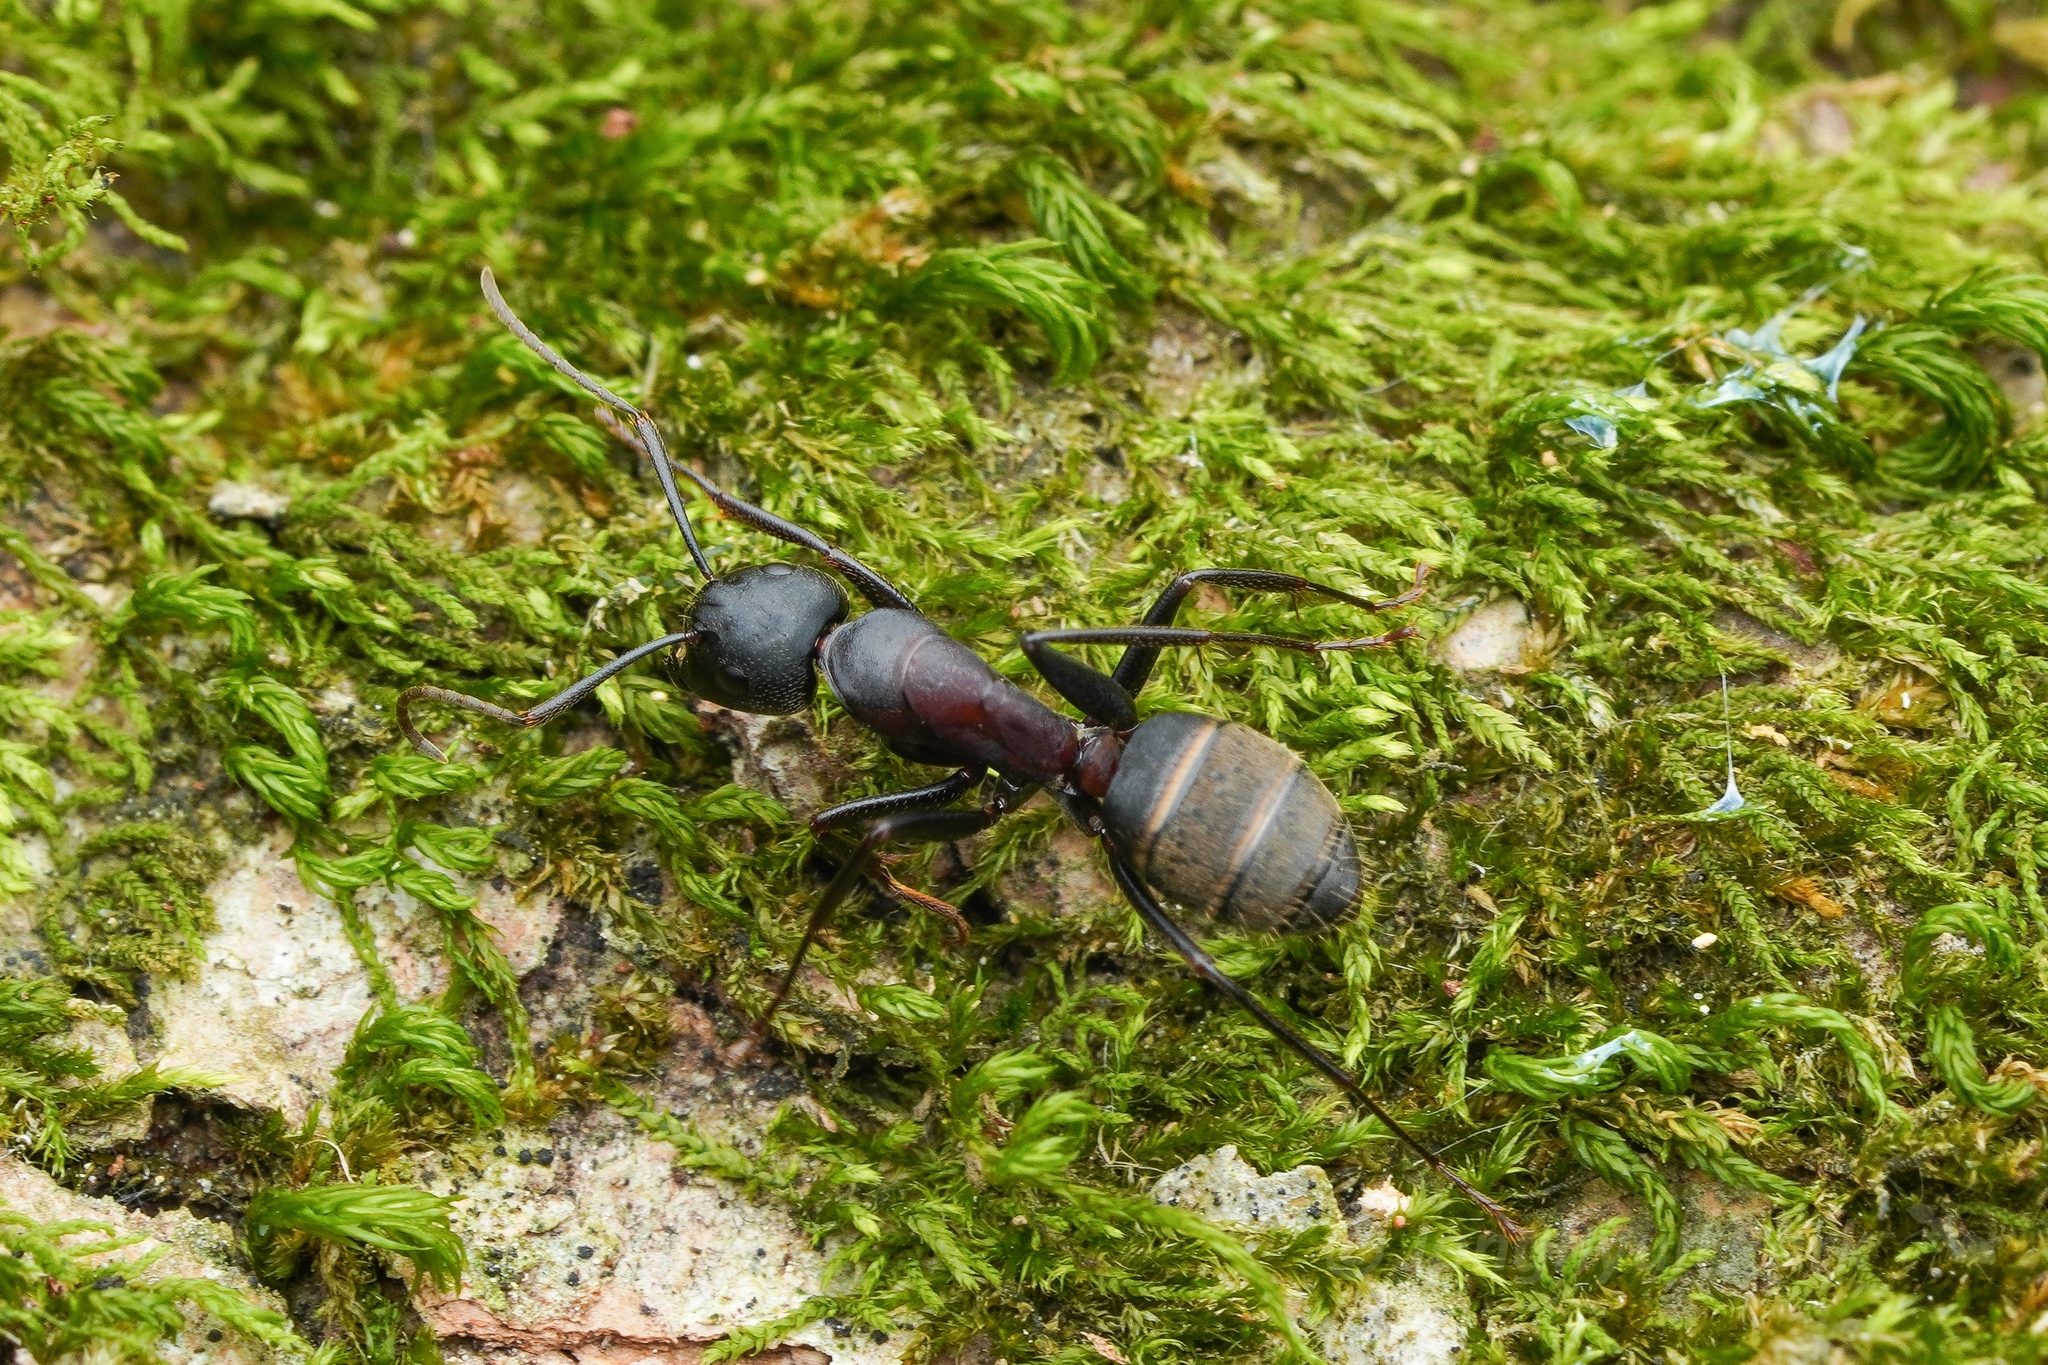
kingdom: Animalia
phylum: Arthropoda
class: Insecta
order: Hymenoptera
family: Formicidae
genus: Camponotus
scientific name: Camponotus atrox
